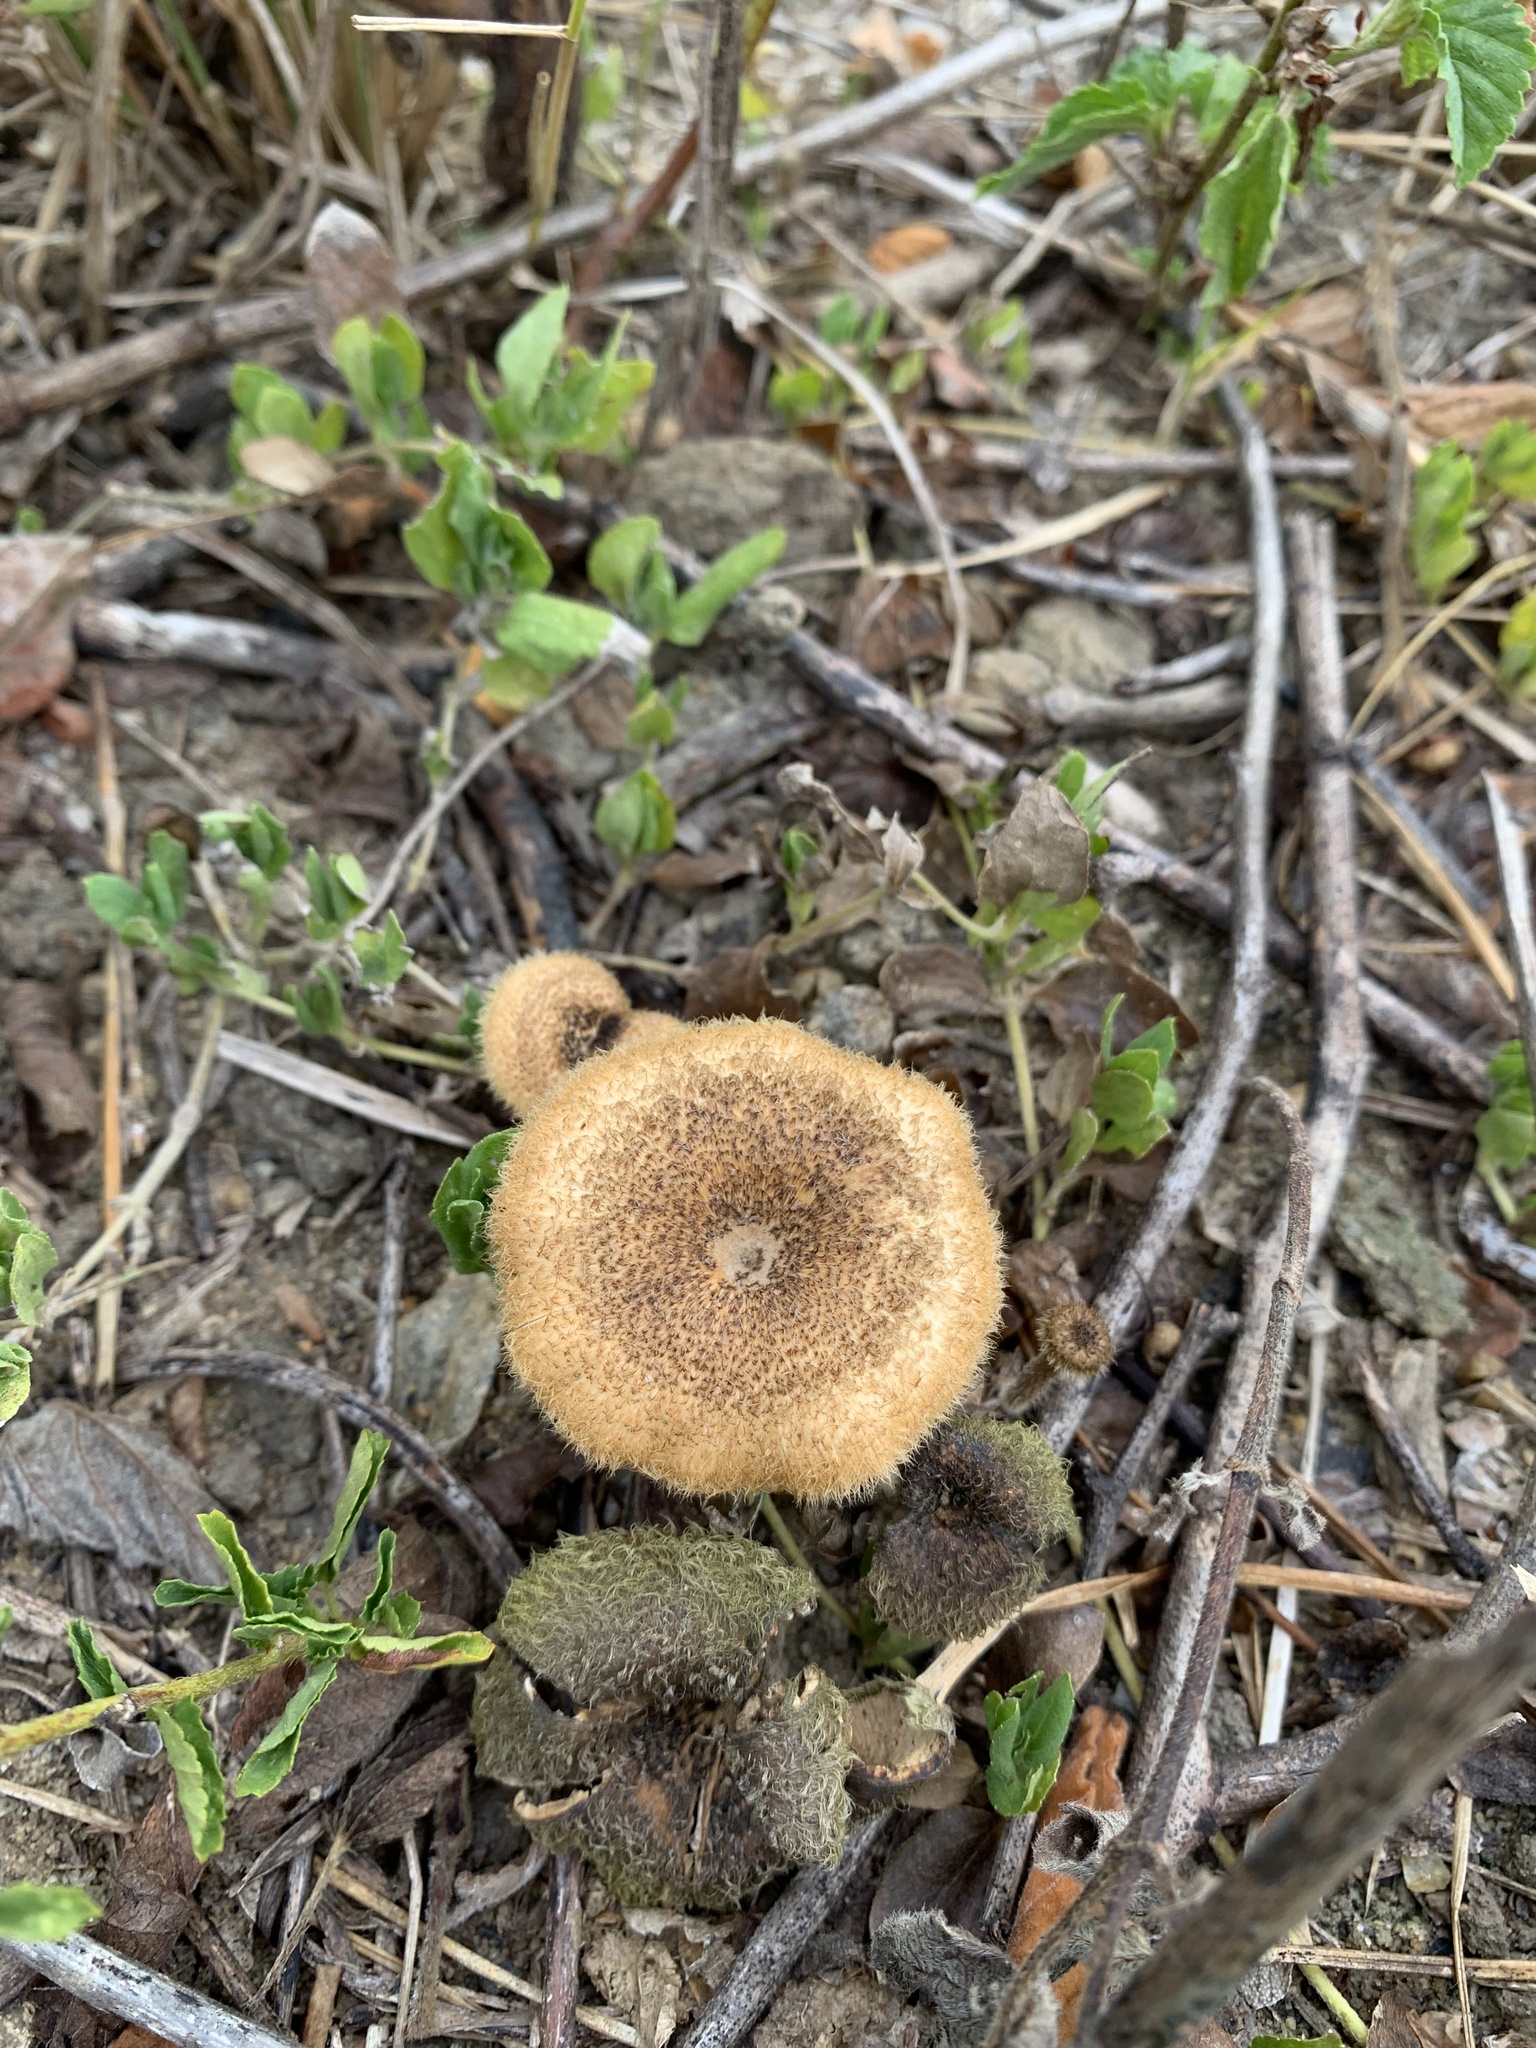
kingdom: Fungi
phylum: Basidiomycota
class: Agaricomycetes
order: Polyporales
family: Polyporaceae
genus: Lentinus
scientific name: Lentinus crinitus
